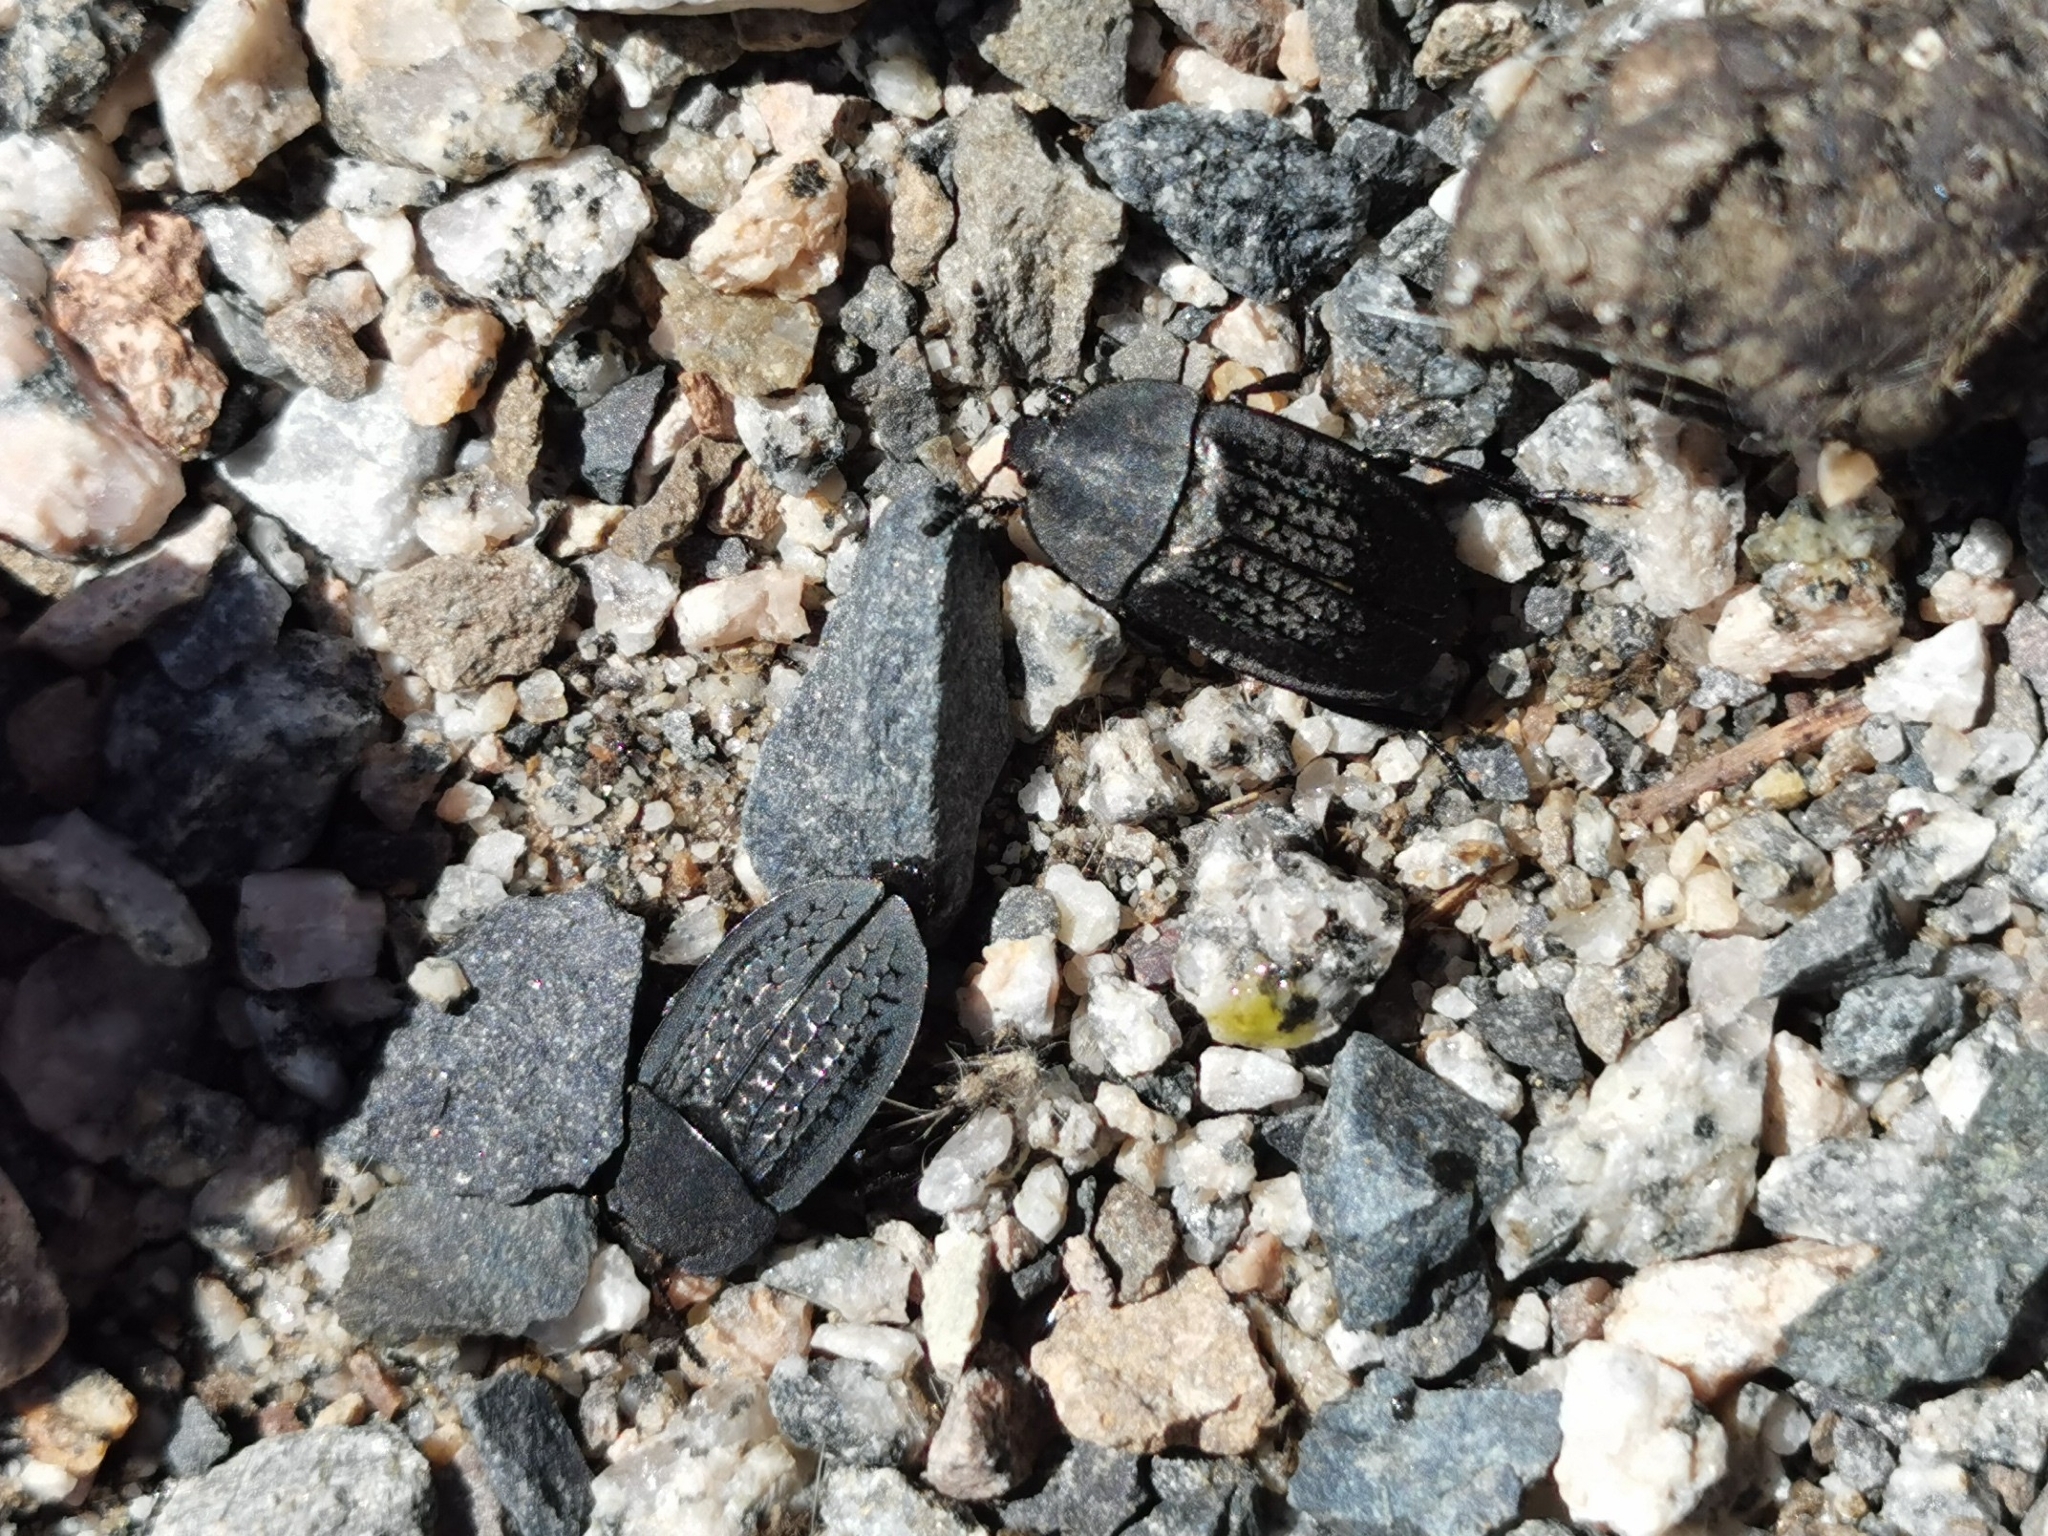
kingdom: Animalia
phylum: Arthropoda
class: Insecta
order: Coleoptera
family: Staphylinidae
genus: Heterosilpha
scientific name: Heterosilpha ramosa
